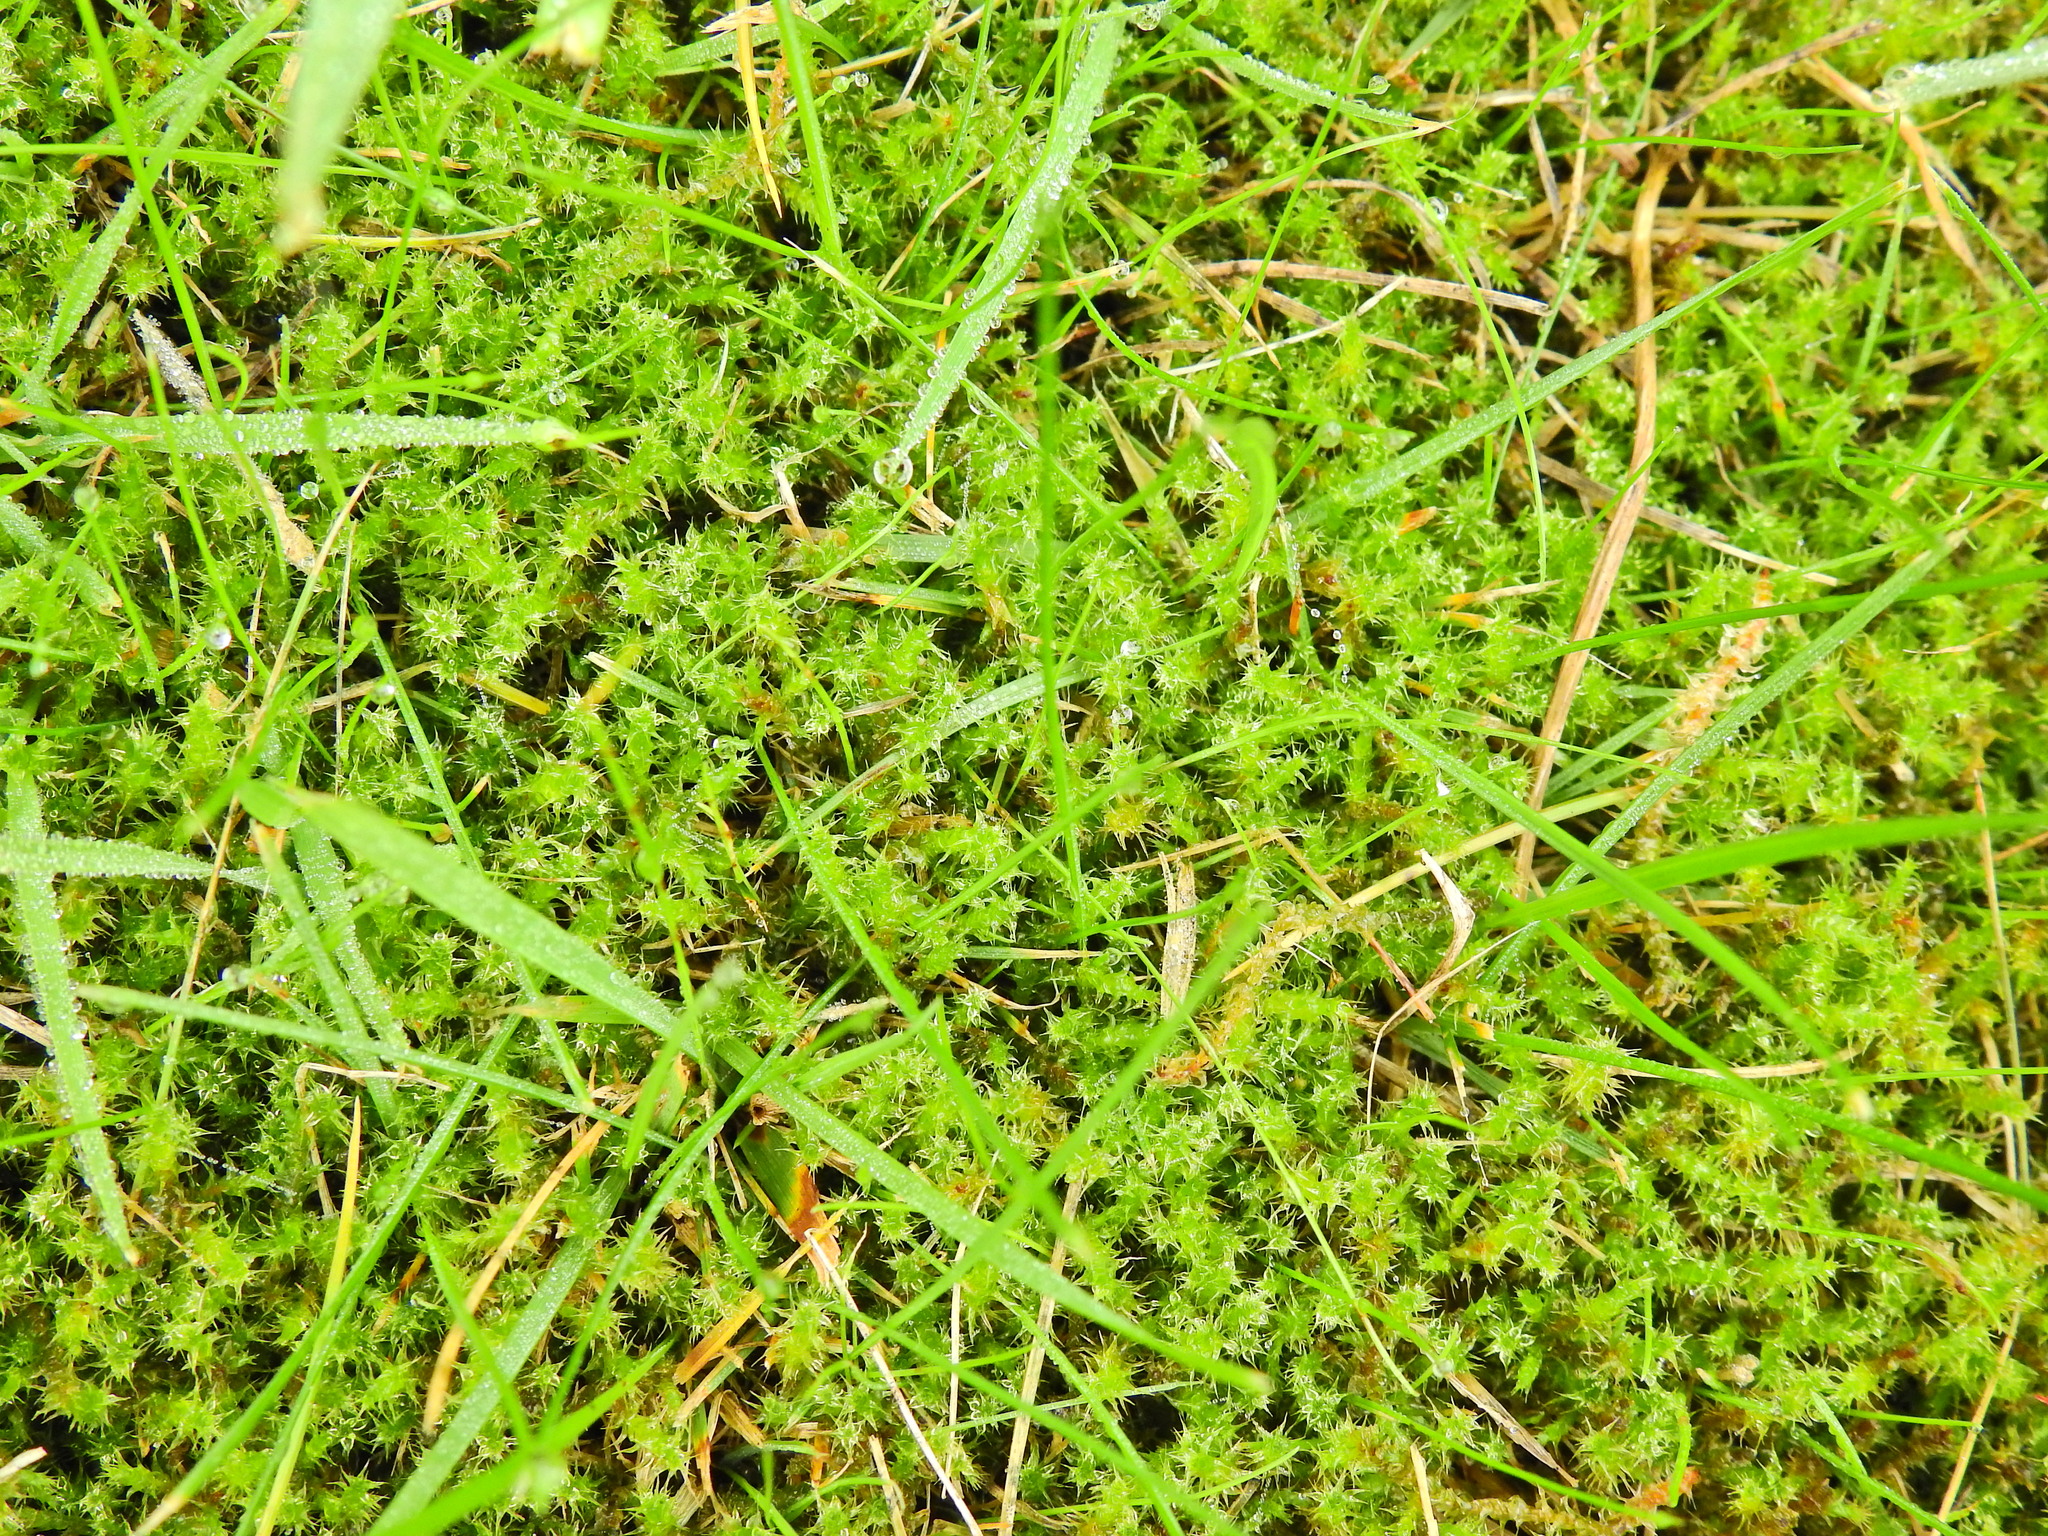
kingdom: Plantae
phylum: Bryophyta
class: Bryopsida
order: Hypnales
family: Hylocomiaceae
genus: Rhytidiadelphus
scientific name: Rhytidiadelphus squarrosus
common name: Springy turf-moss
